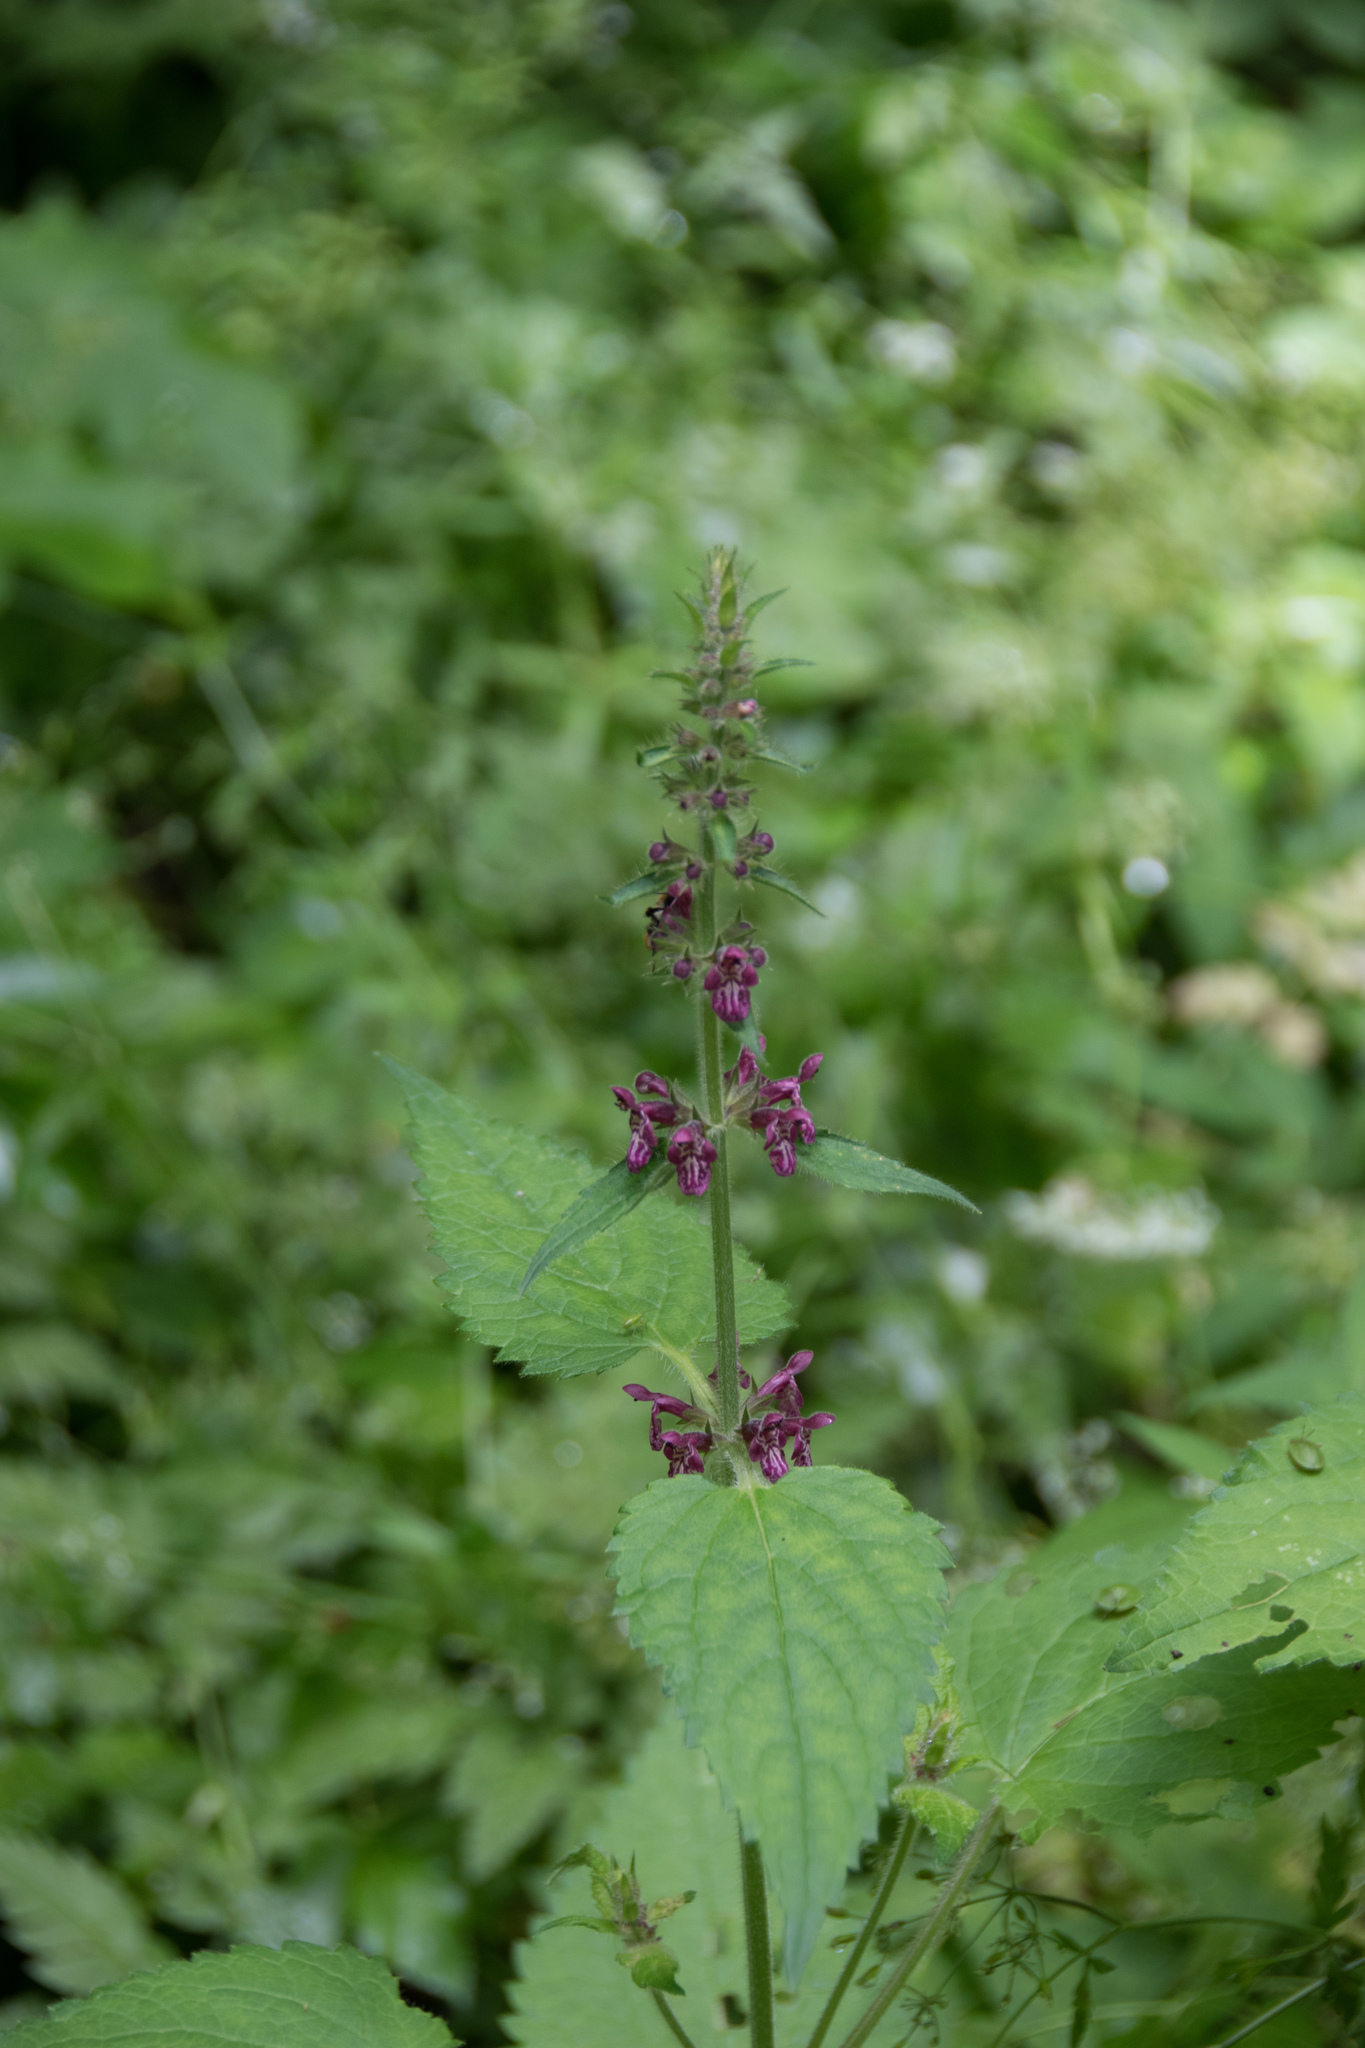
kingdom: Plantae
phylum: Tracheophyta
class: Magnoliopsida
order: Lamiales
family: Lamiaceae
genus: Stachys
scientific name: Stachys sylvatica
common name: Hedge woundwort
